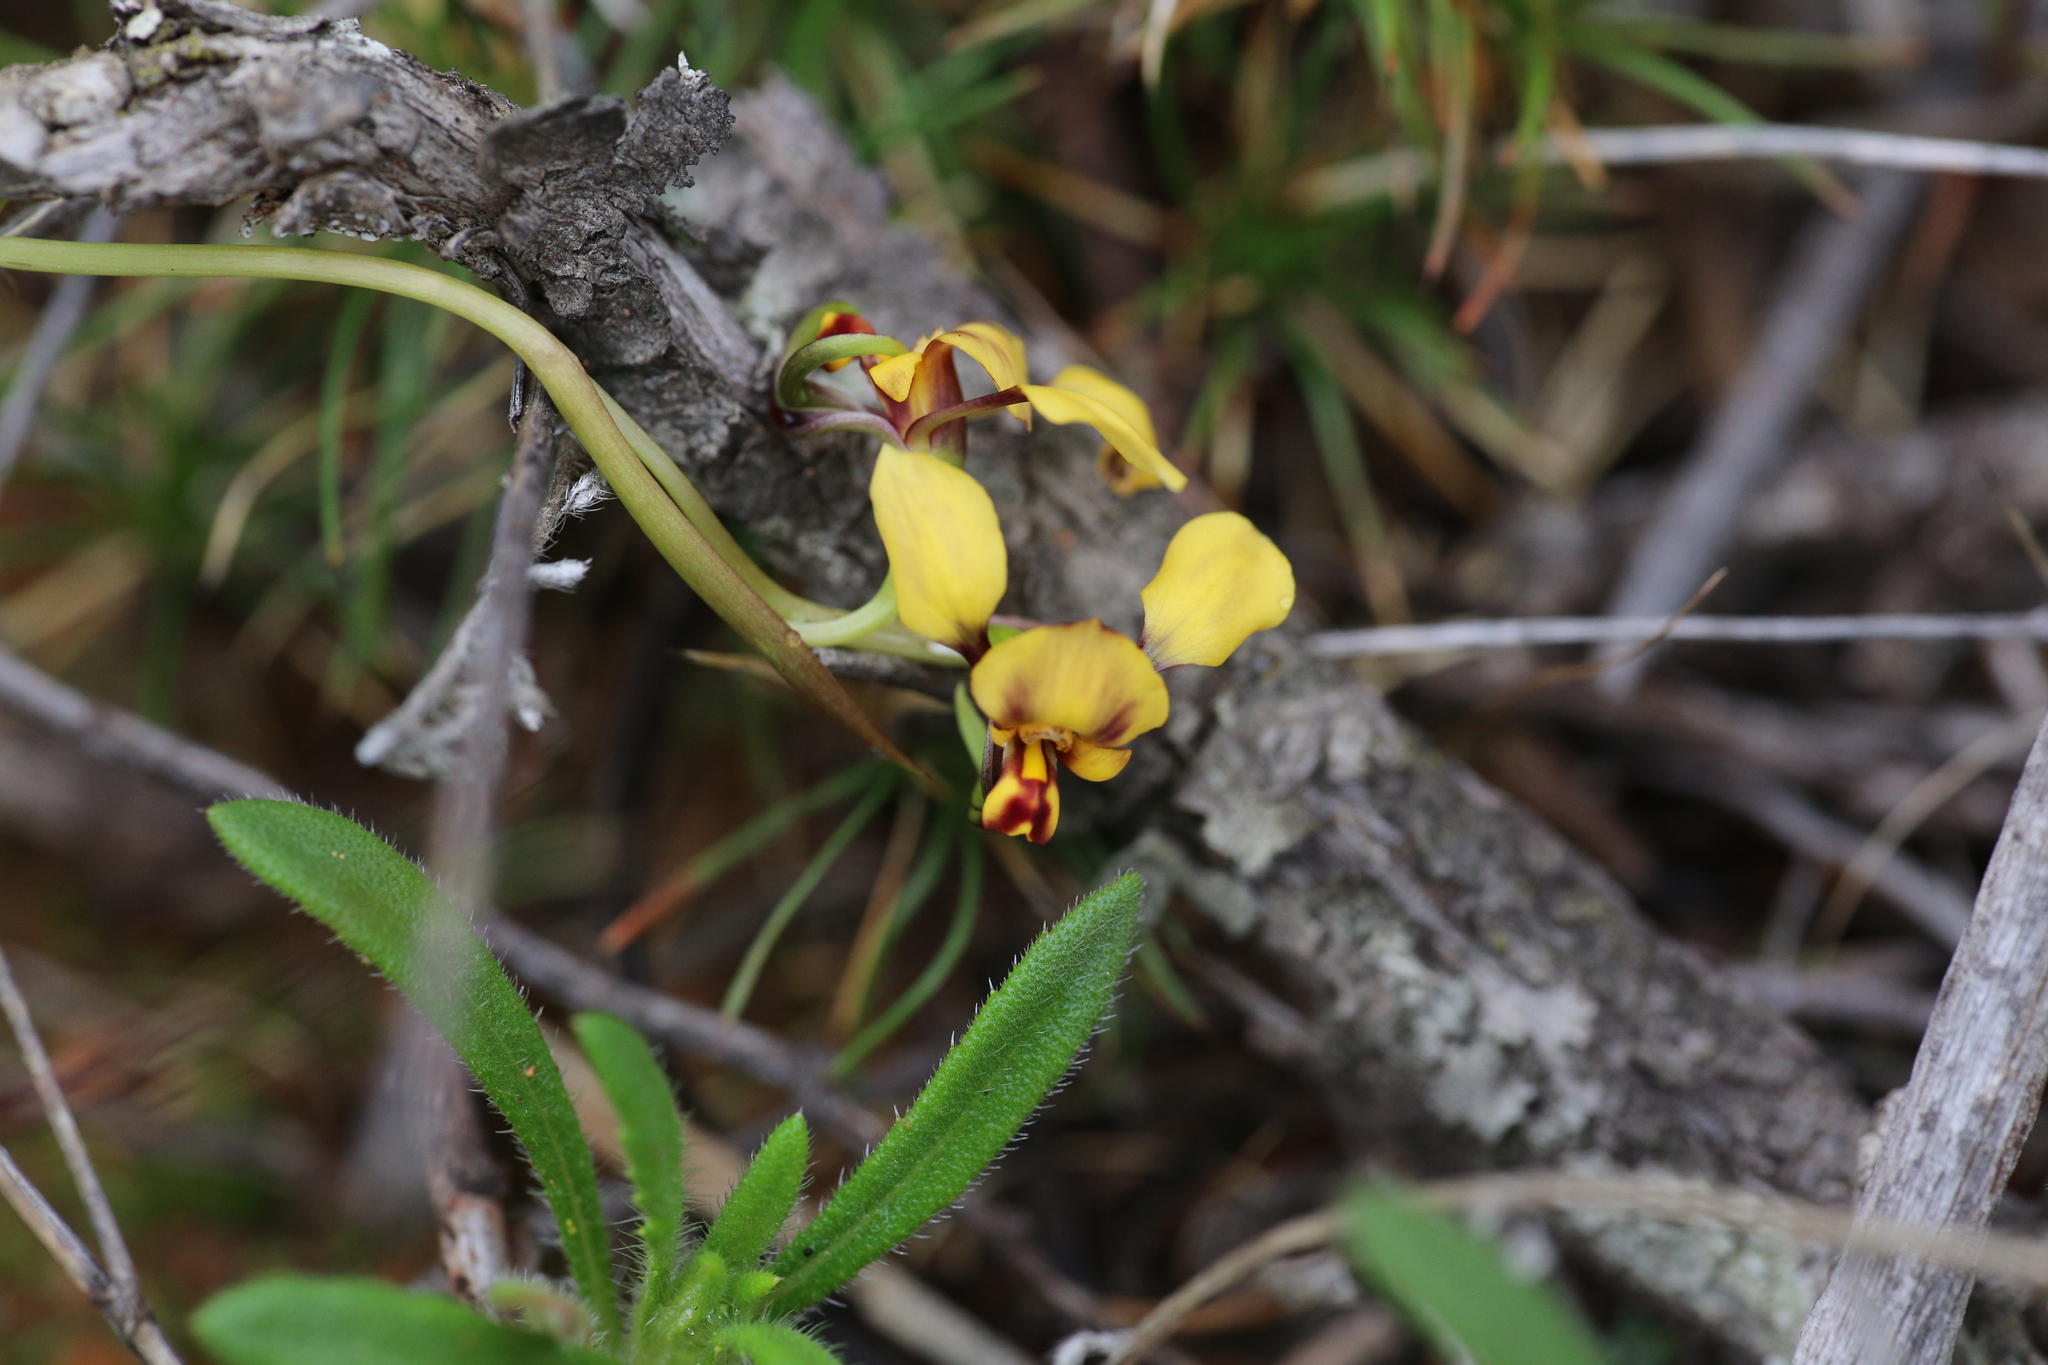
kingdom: Plantae
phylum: Tracheophyta
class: Liliopsida
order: Asparagales
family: Orchidaceae
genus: Diuris
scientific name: Diuris pallescens
